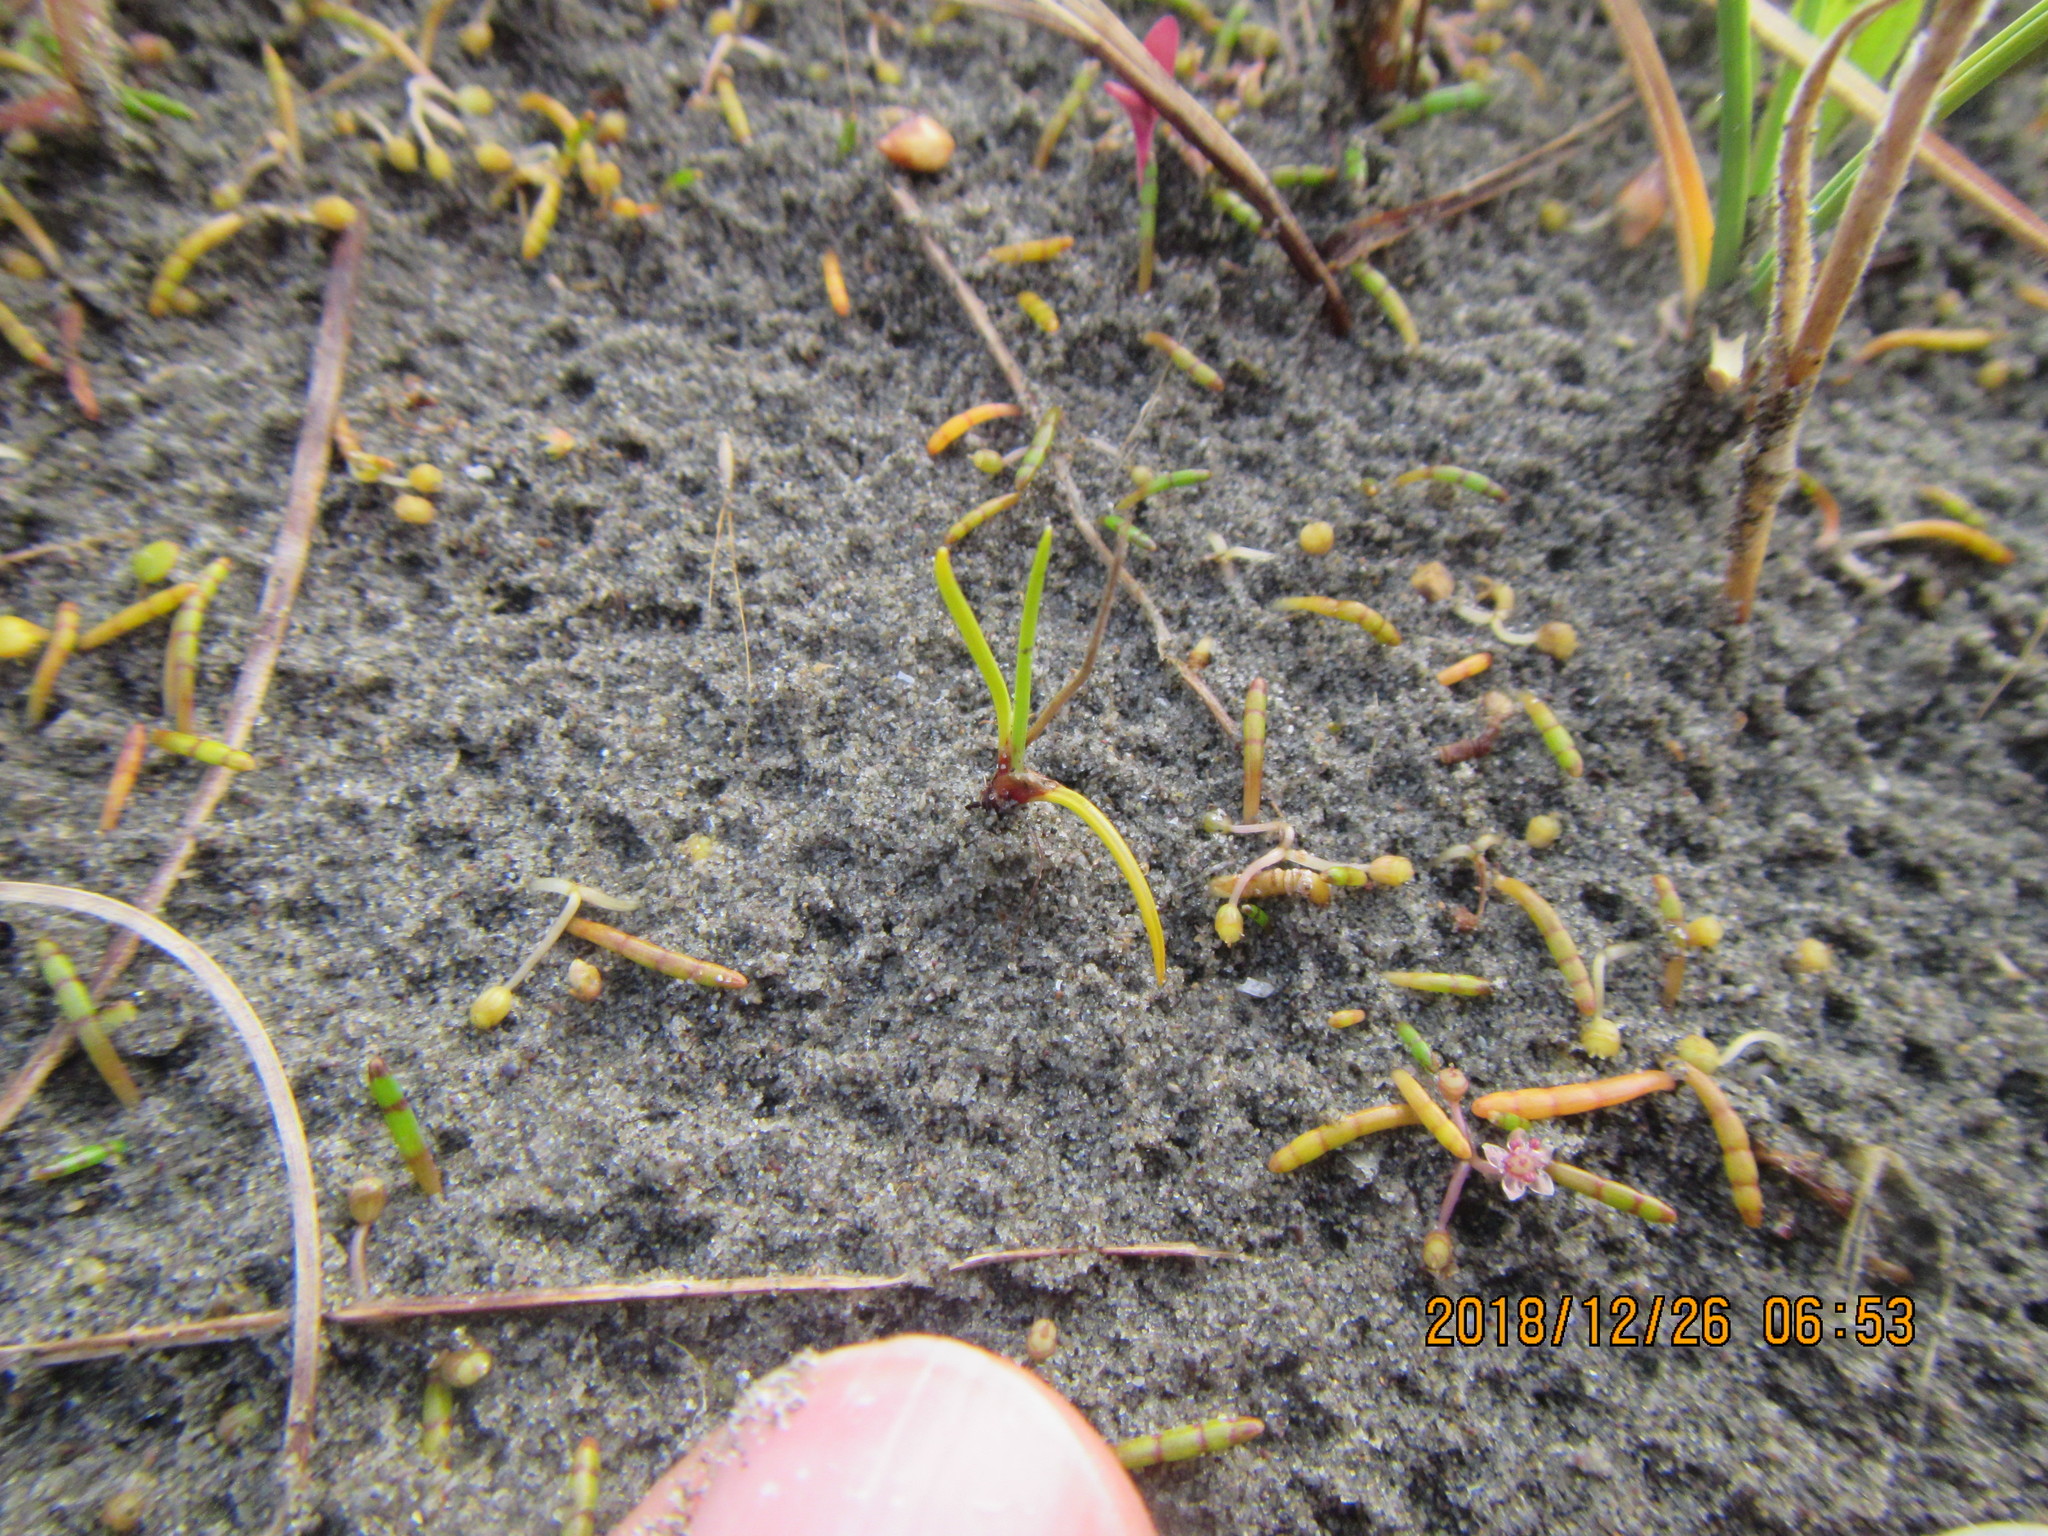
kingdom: Plantae
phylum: Tracheophyta
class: Magnoliopsida
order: Apiales
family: Apiaceae
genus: Lilaeopsis
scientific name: Lilaeopsis novae-zelandiae
